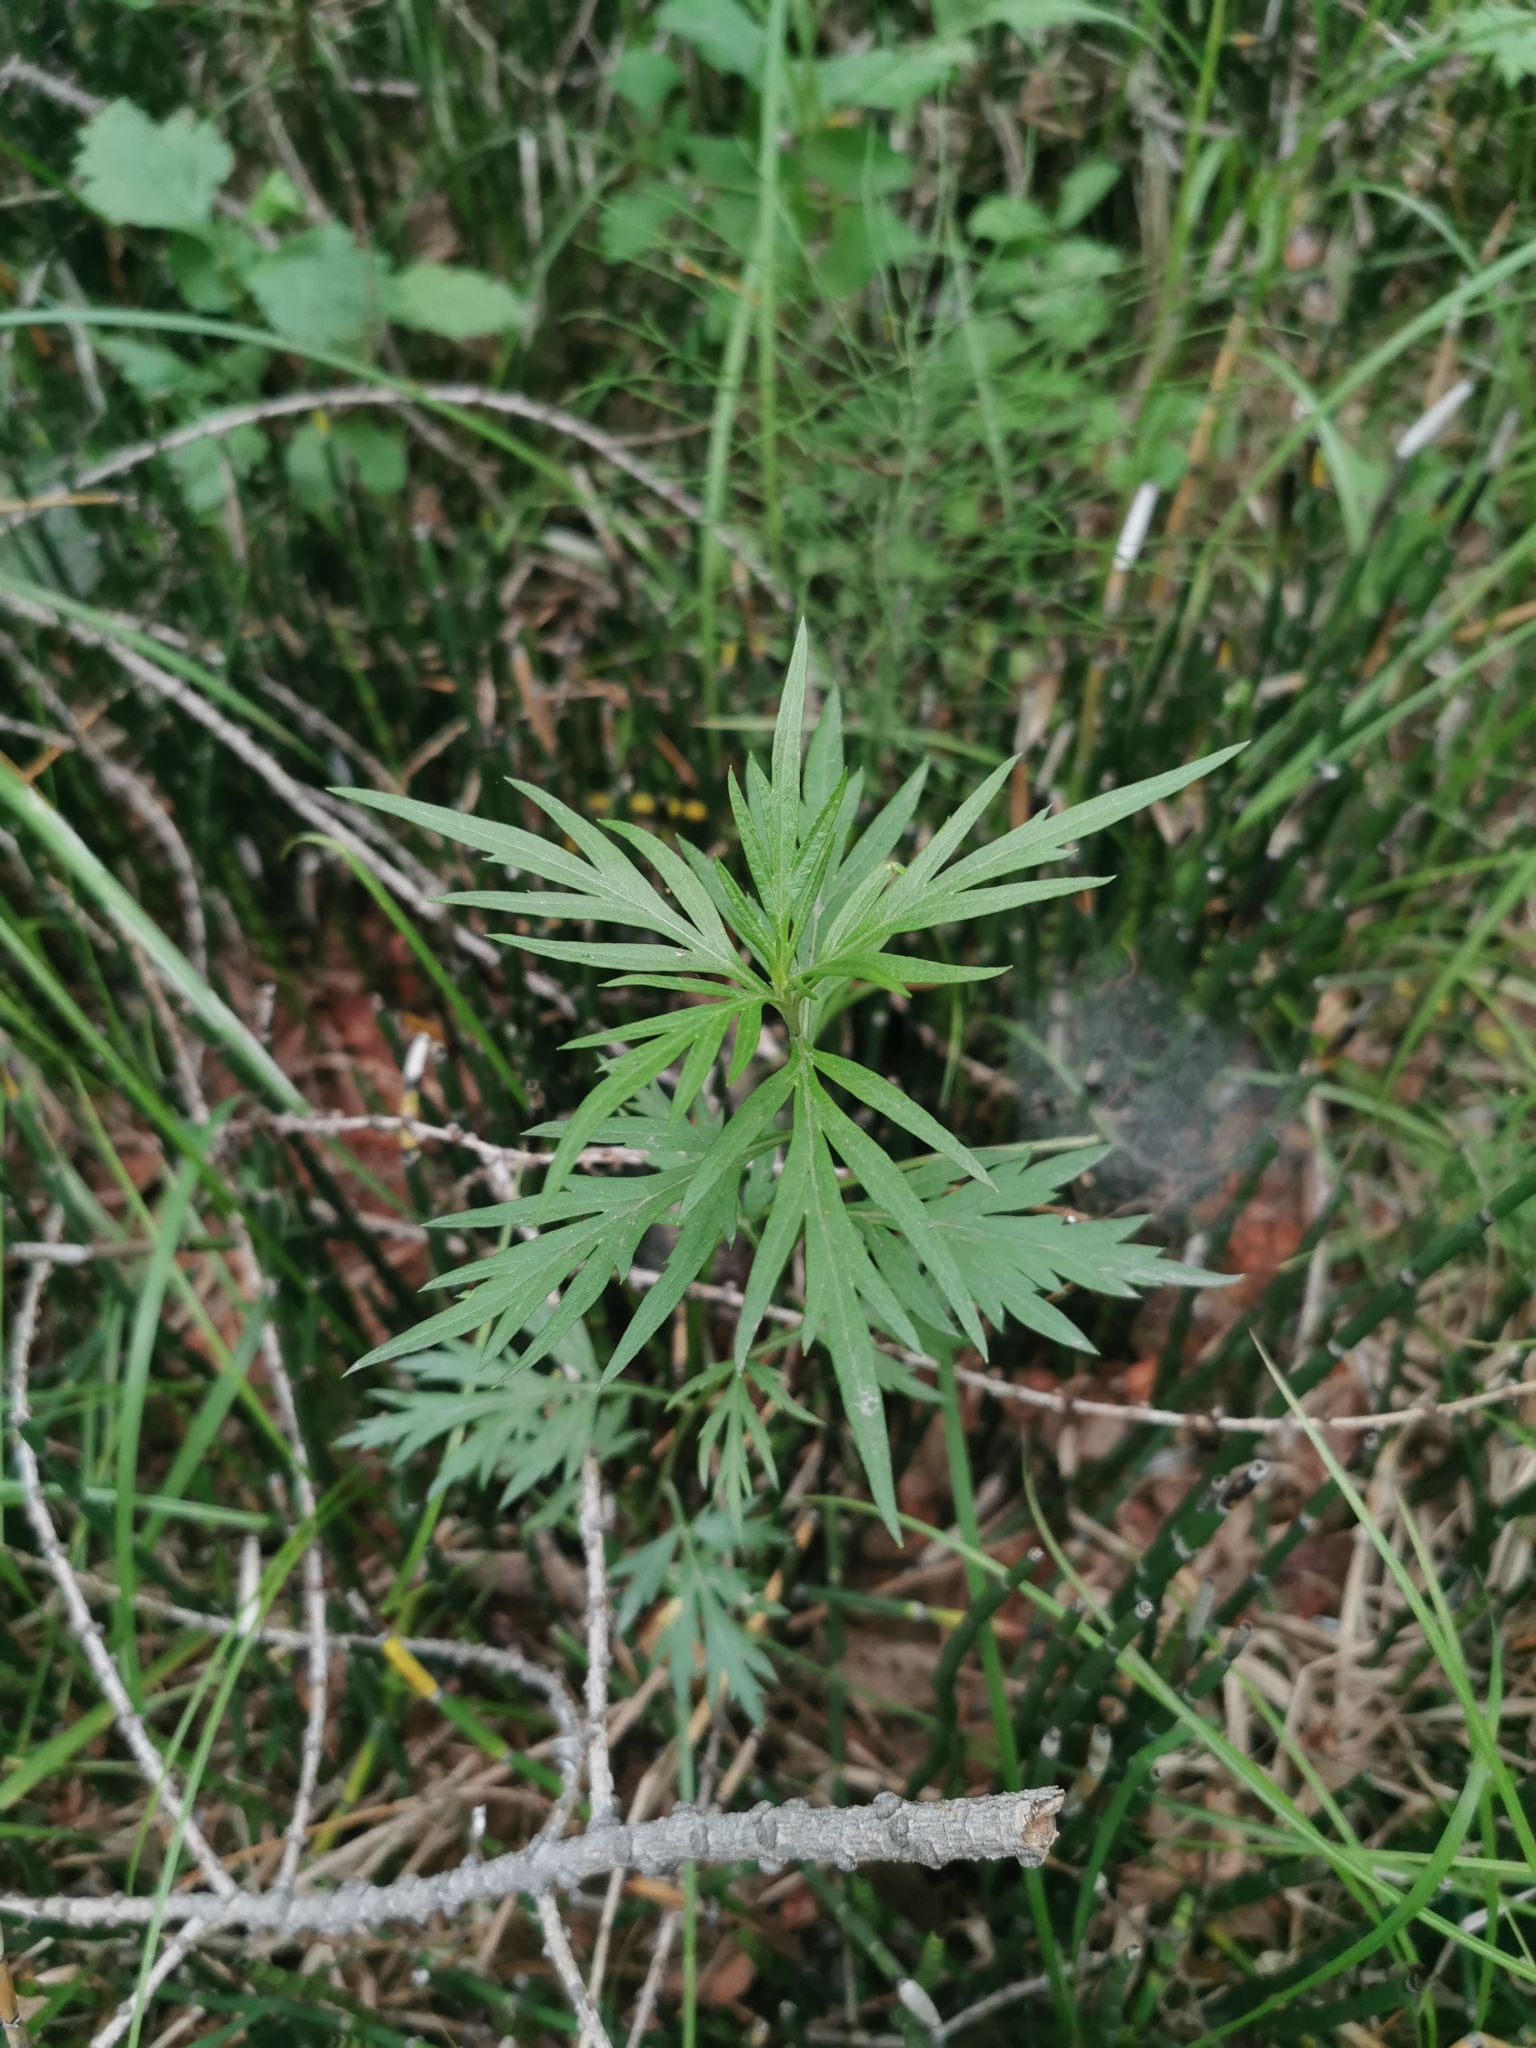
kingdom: Plantae
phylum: Tracheophyta
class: Magnoliopsida
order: Asterales
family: Asteraceae
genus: Artemisia
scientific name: Artemisia vulgaris
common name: Mugwort
